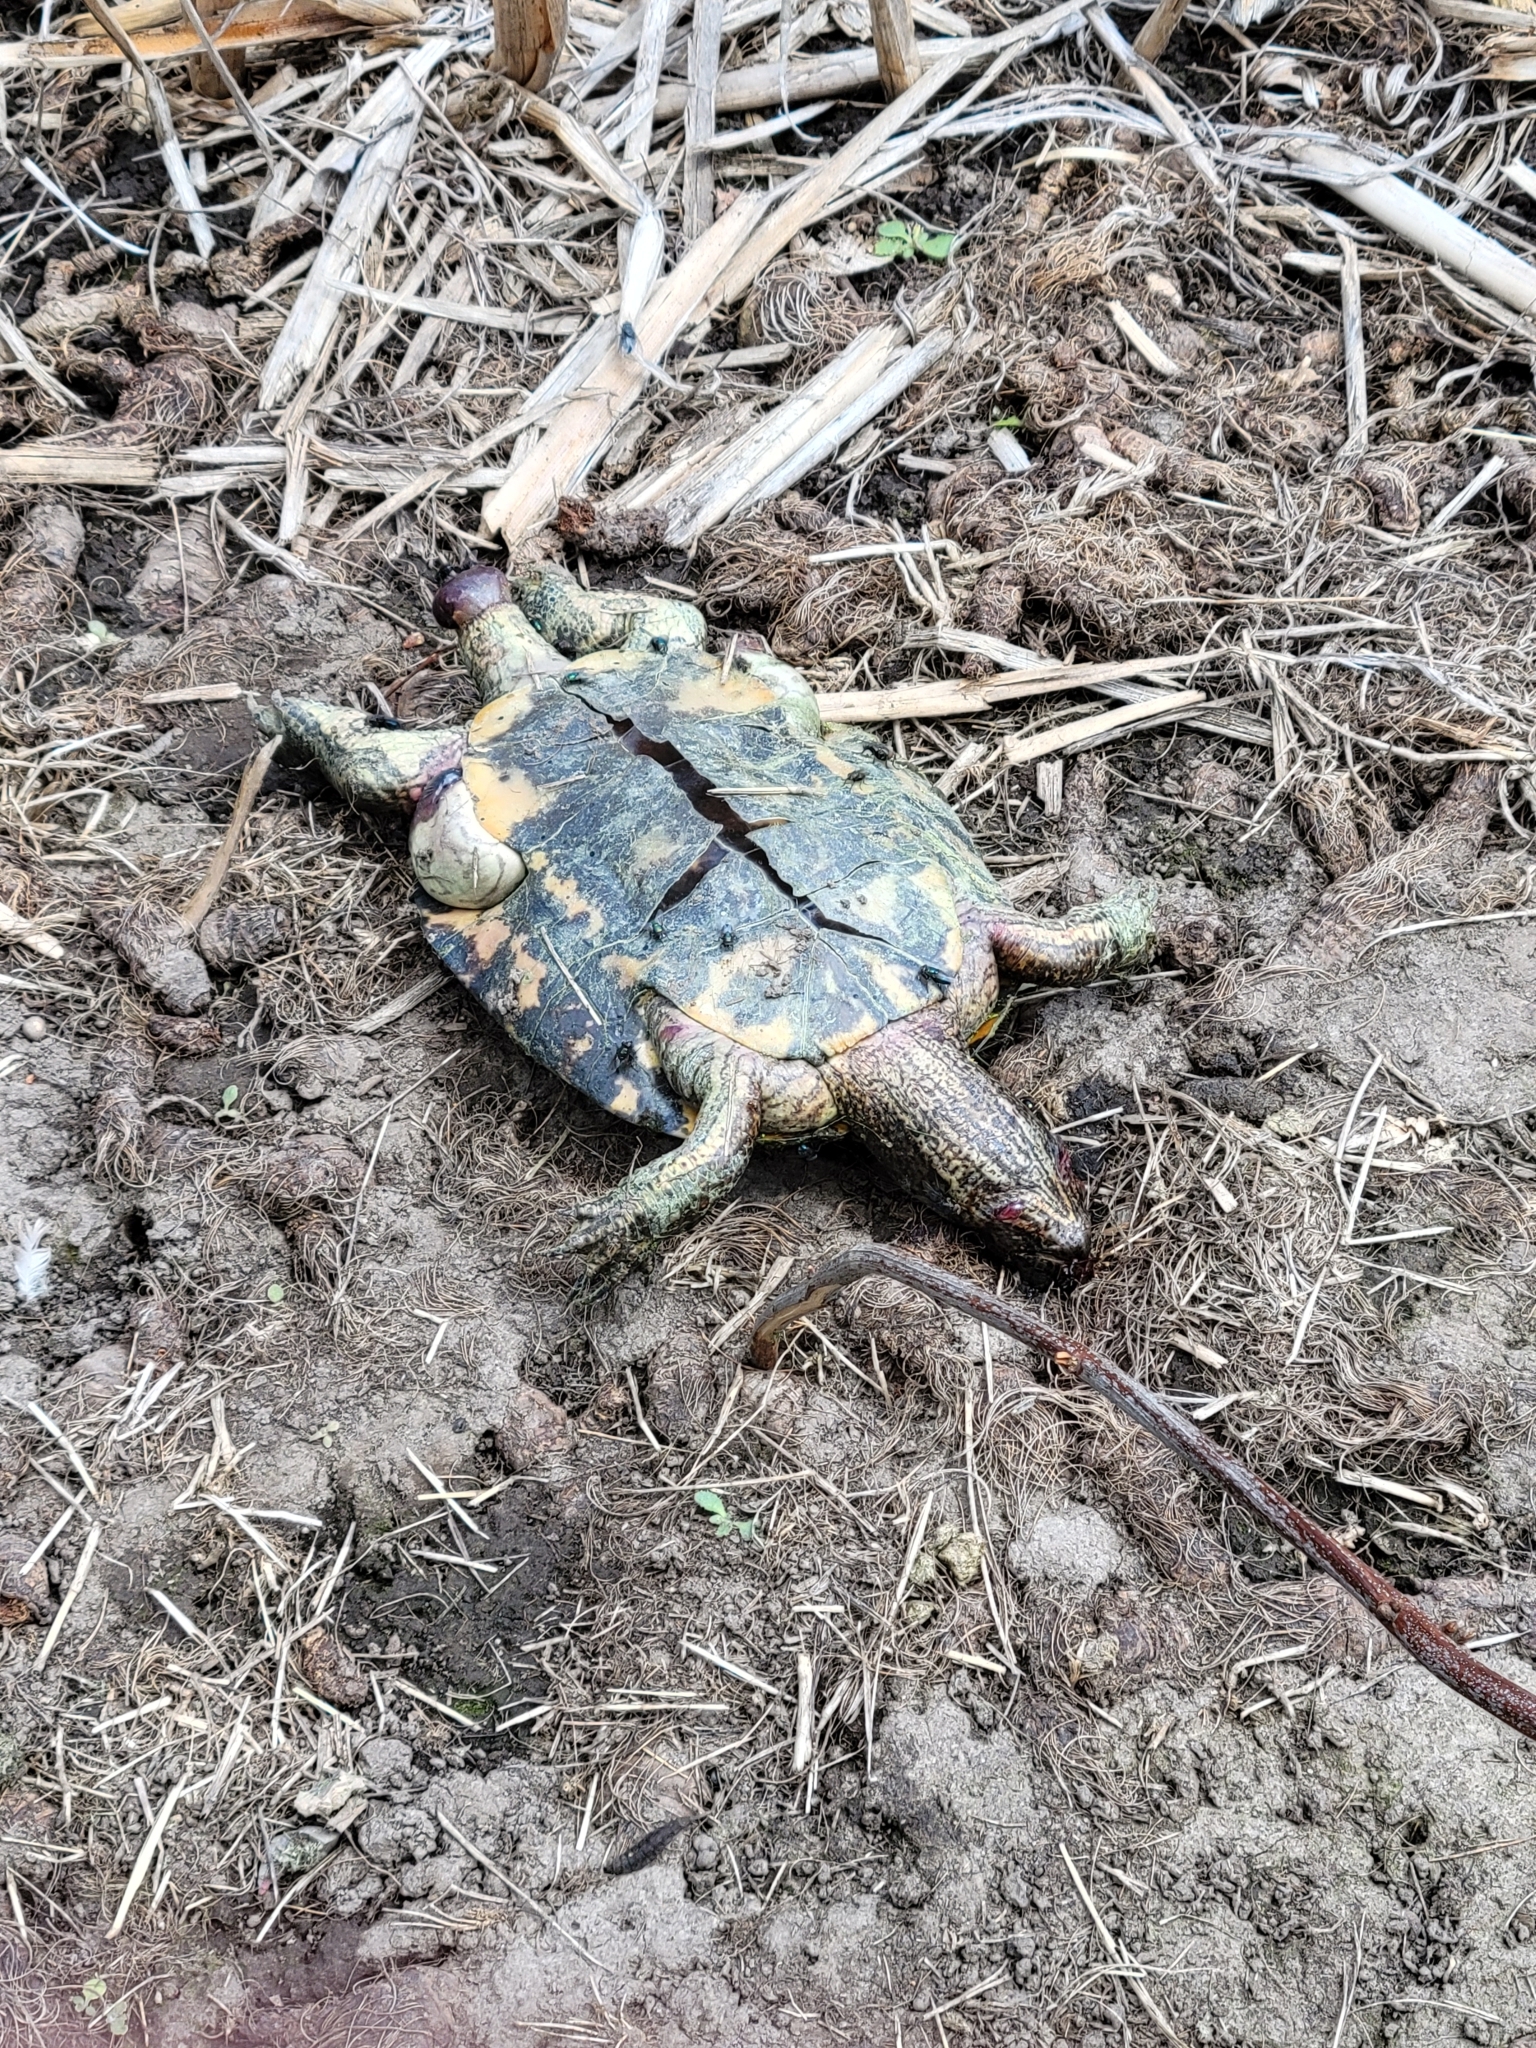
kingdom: Animalia
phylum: Chordata
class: Testudines
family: Emydidae
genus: Trachemys
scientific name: Trachemys scripta
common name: Slider
